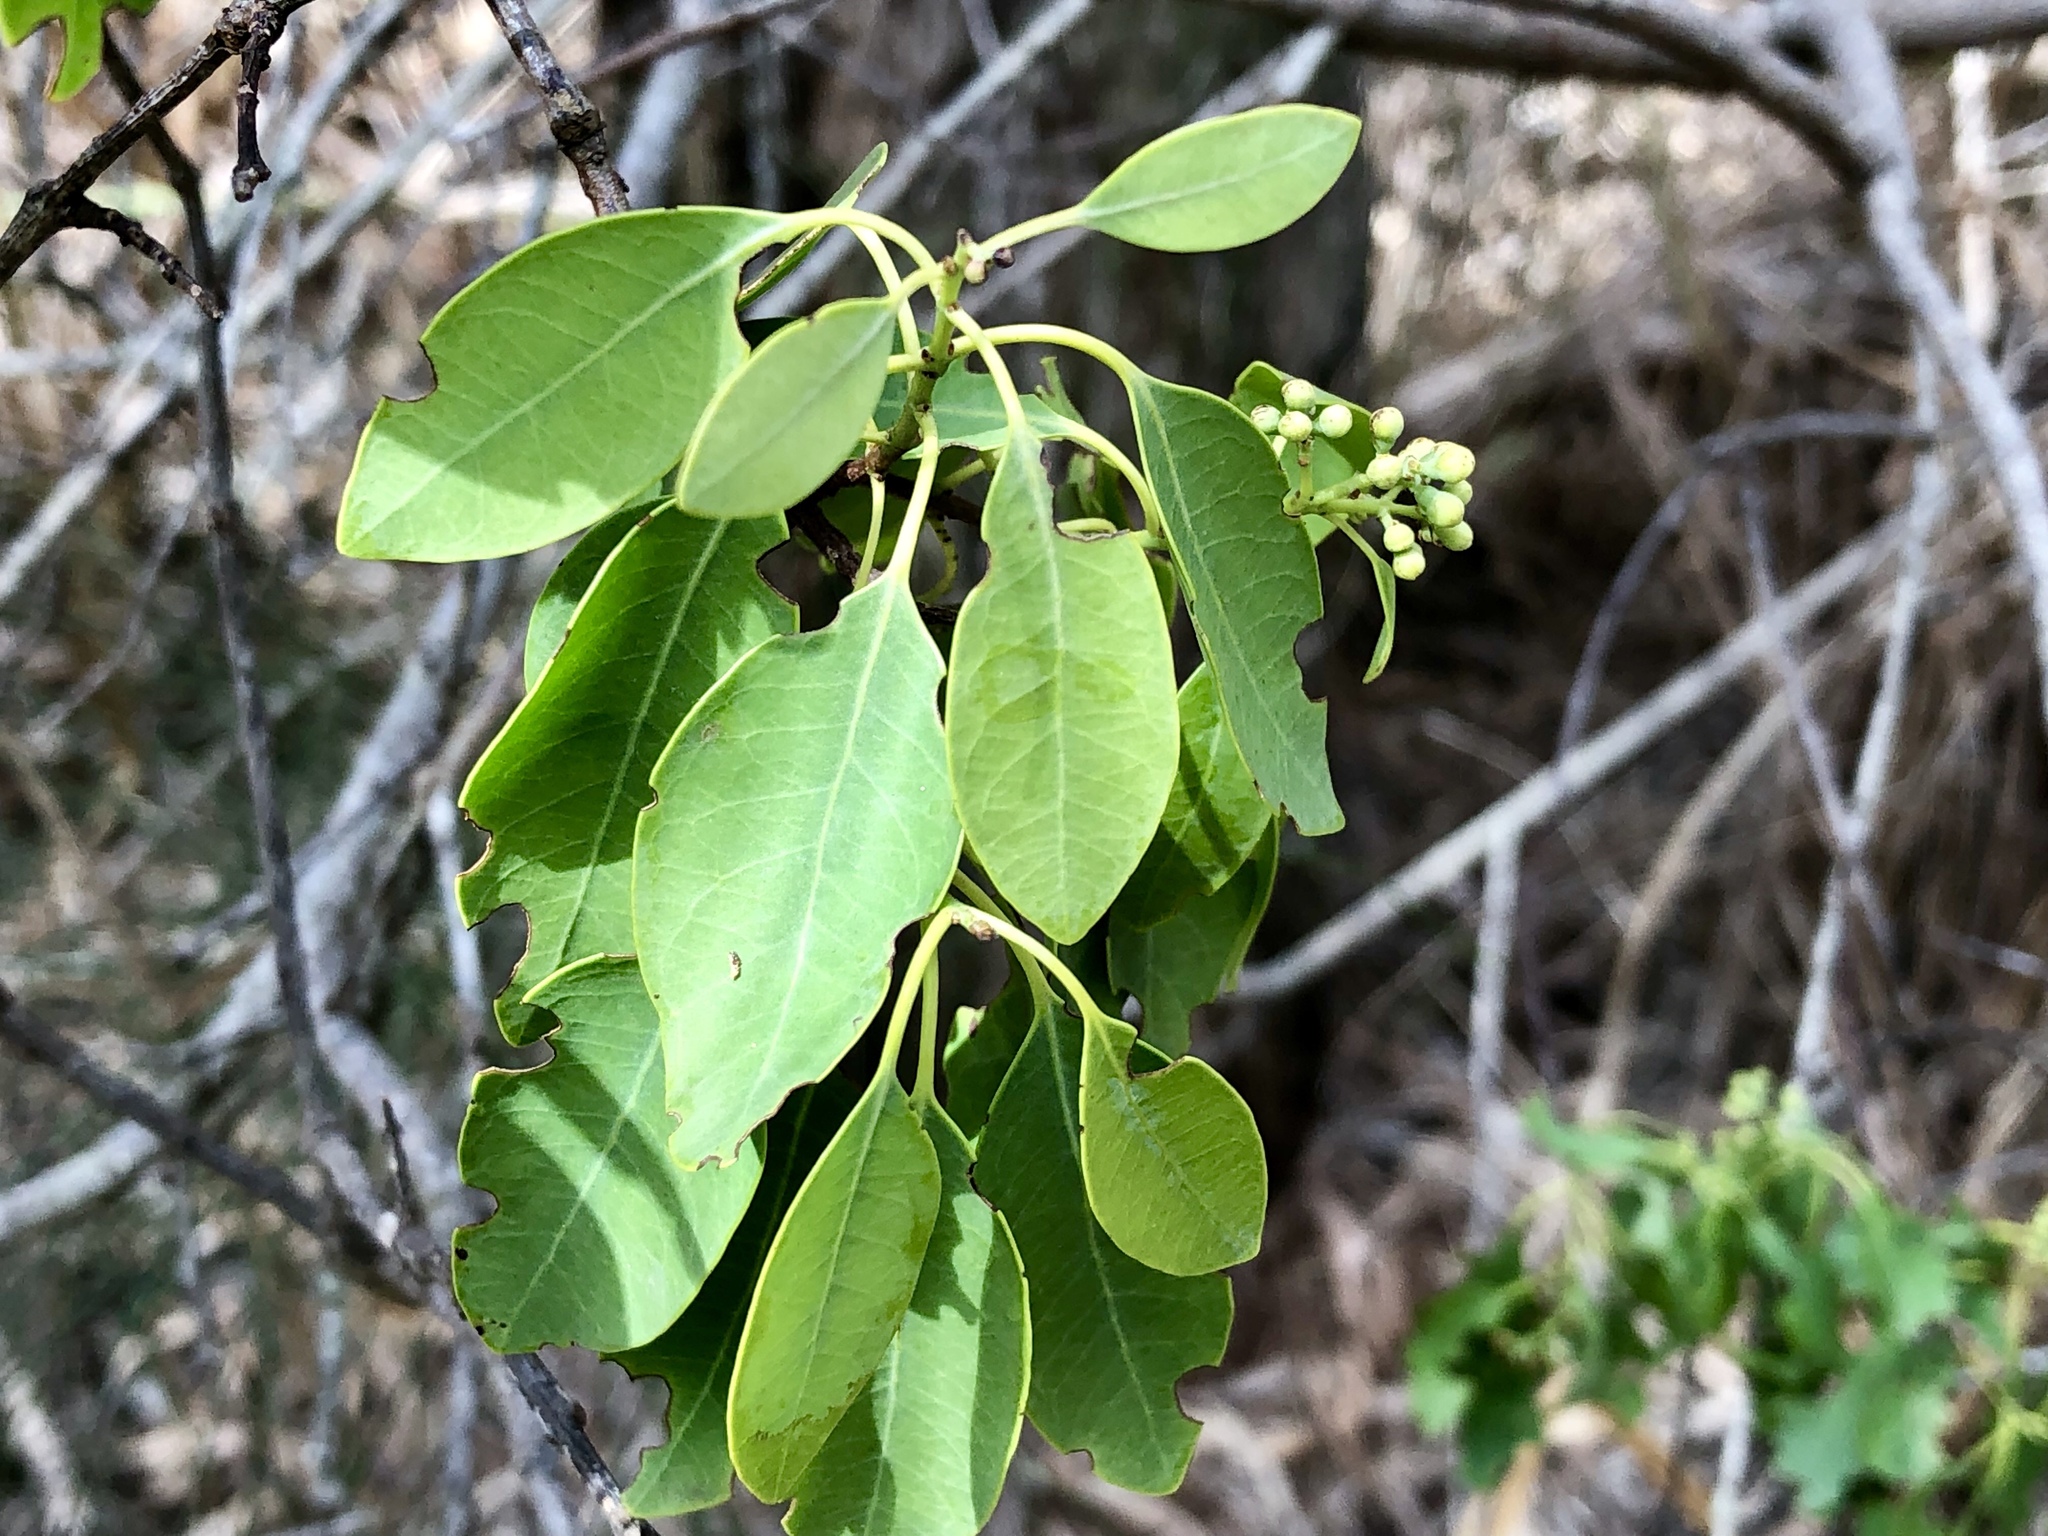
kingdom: Plantae
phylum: Tracheophyta
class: Magnoliopsida
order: Santalales
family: Santalaceae
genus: Santalum
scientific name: Santalum ellipticum
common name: Coast sandalwood
